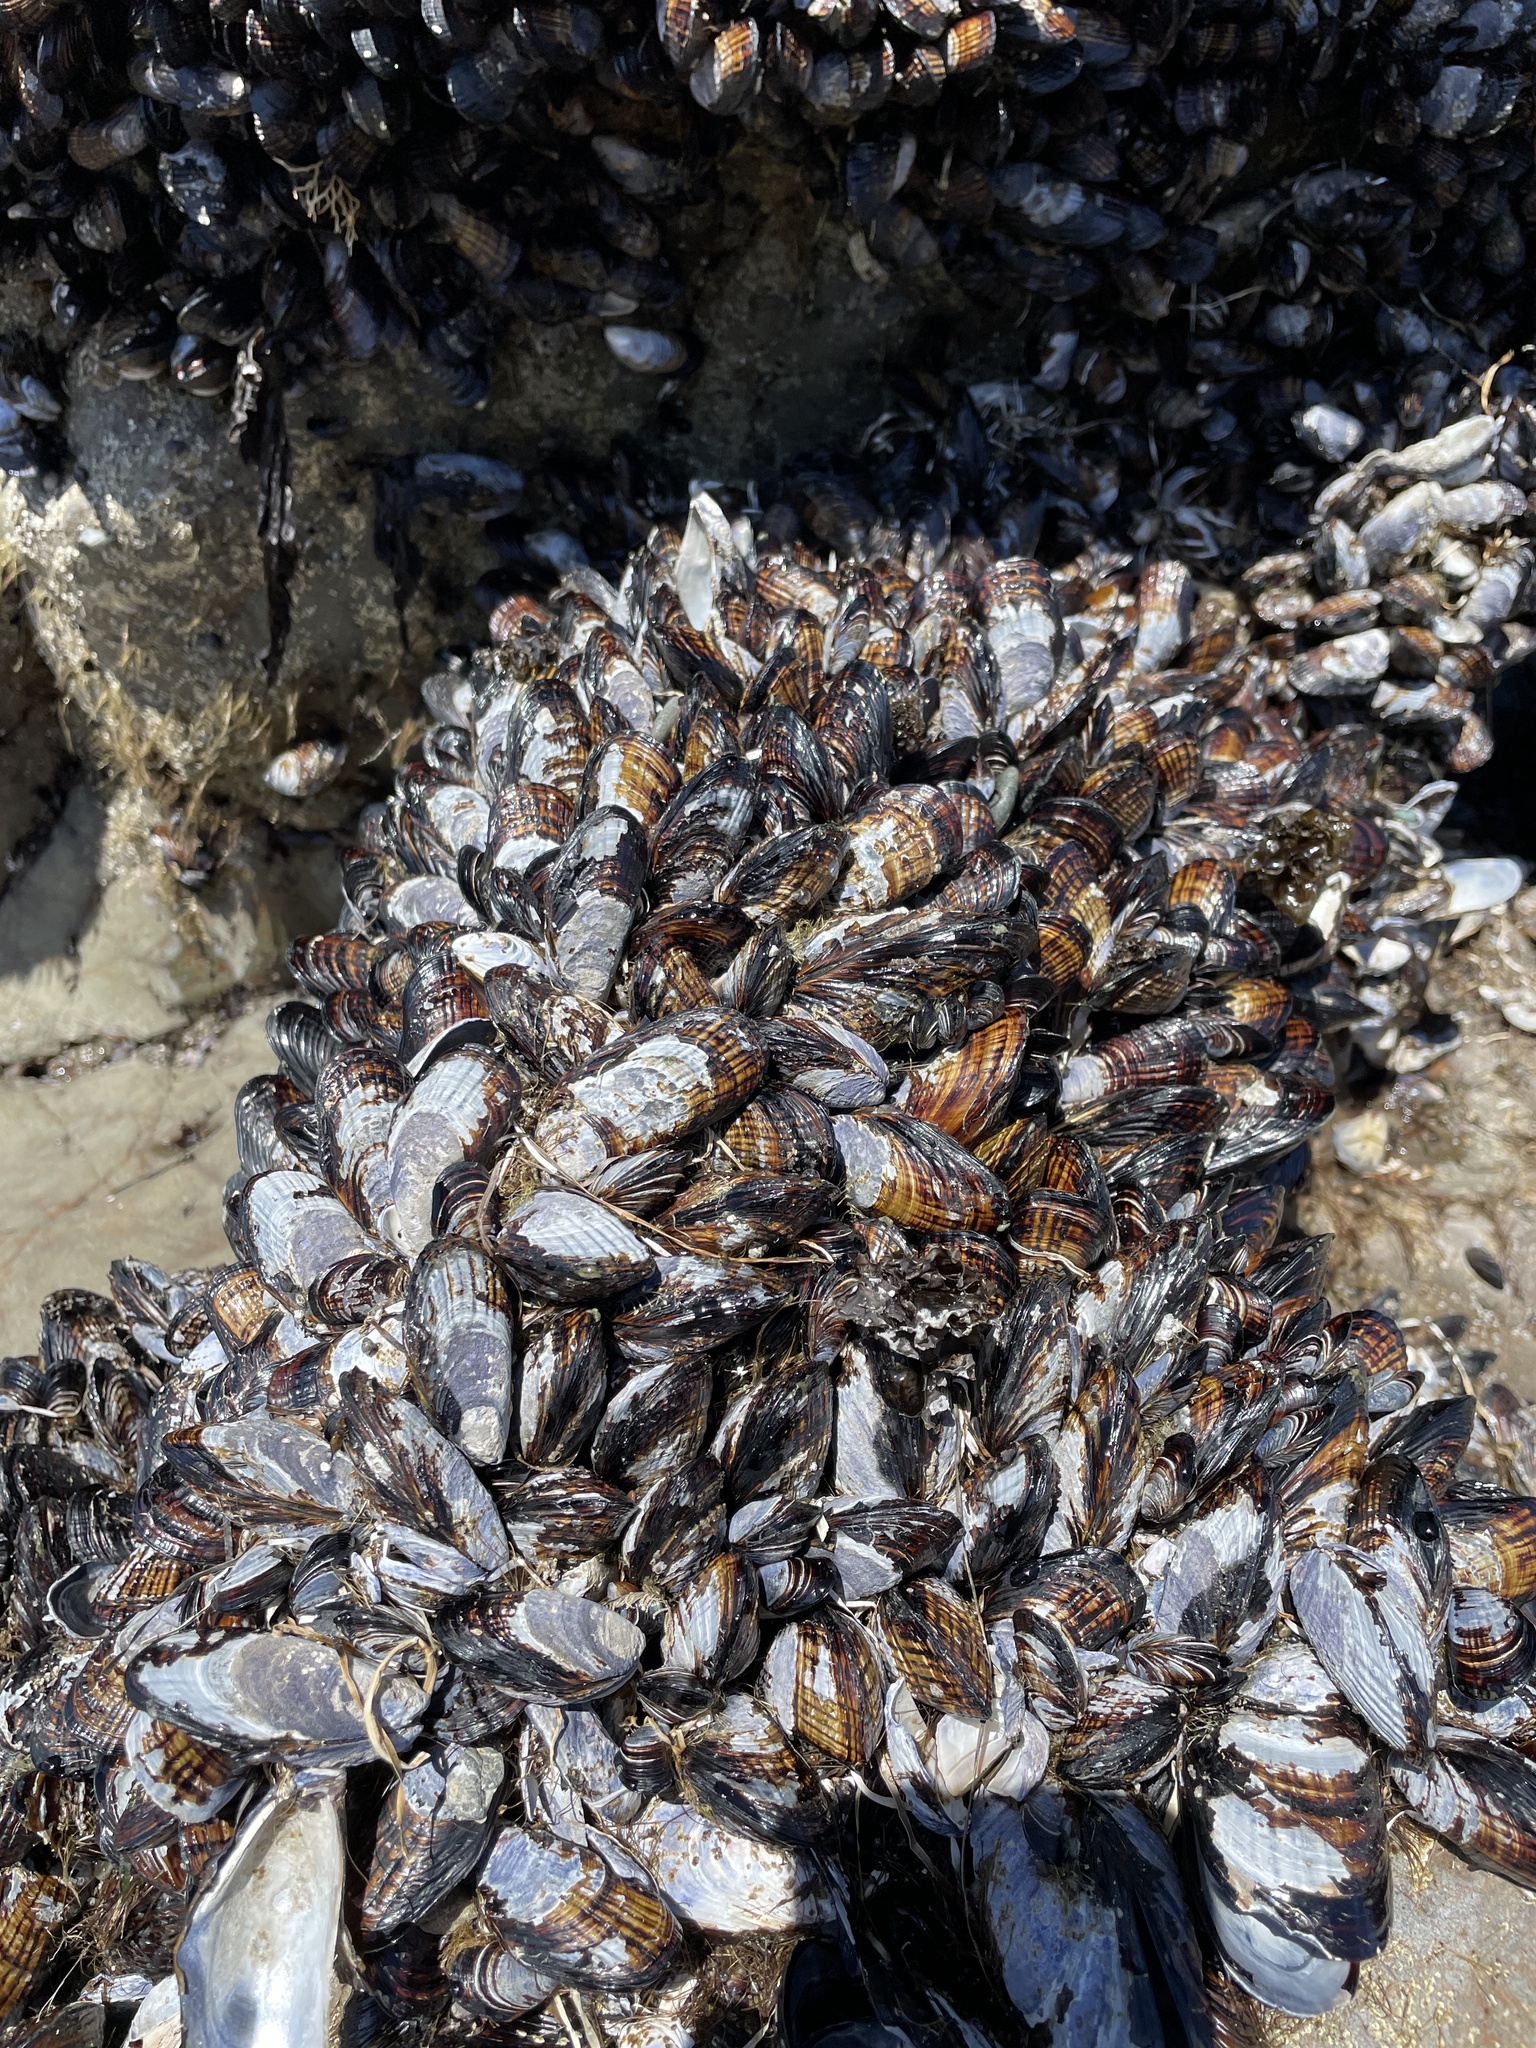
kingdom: Animalia
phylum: Mollusca
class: Bivalvia
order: Mytilida
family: Mytilidae
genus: Mytilus
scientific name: Mytilus californianus
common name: California mussel
